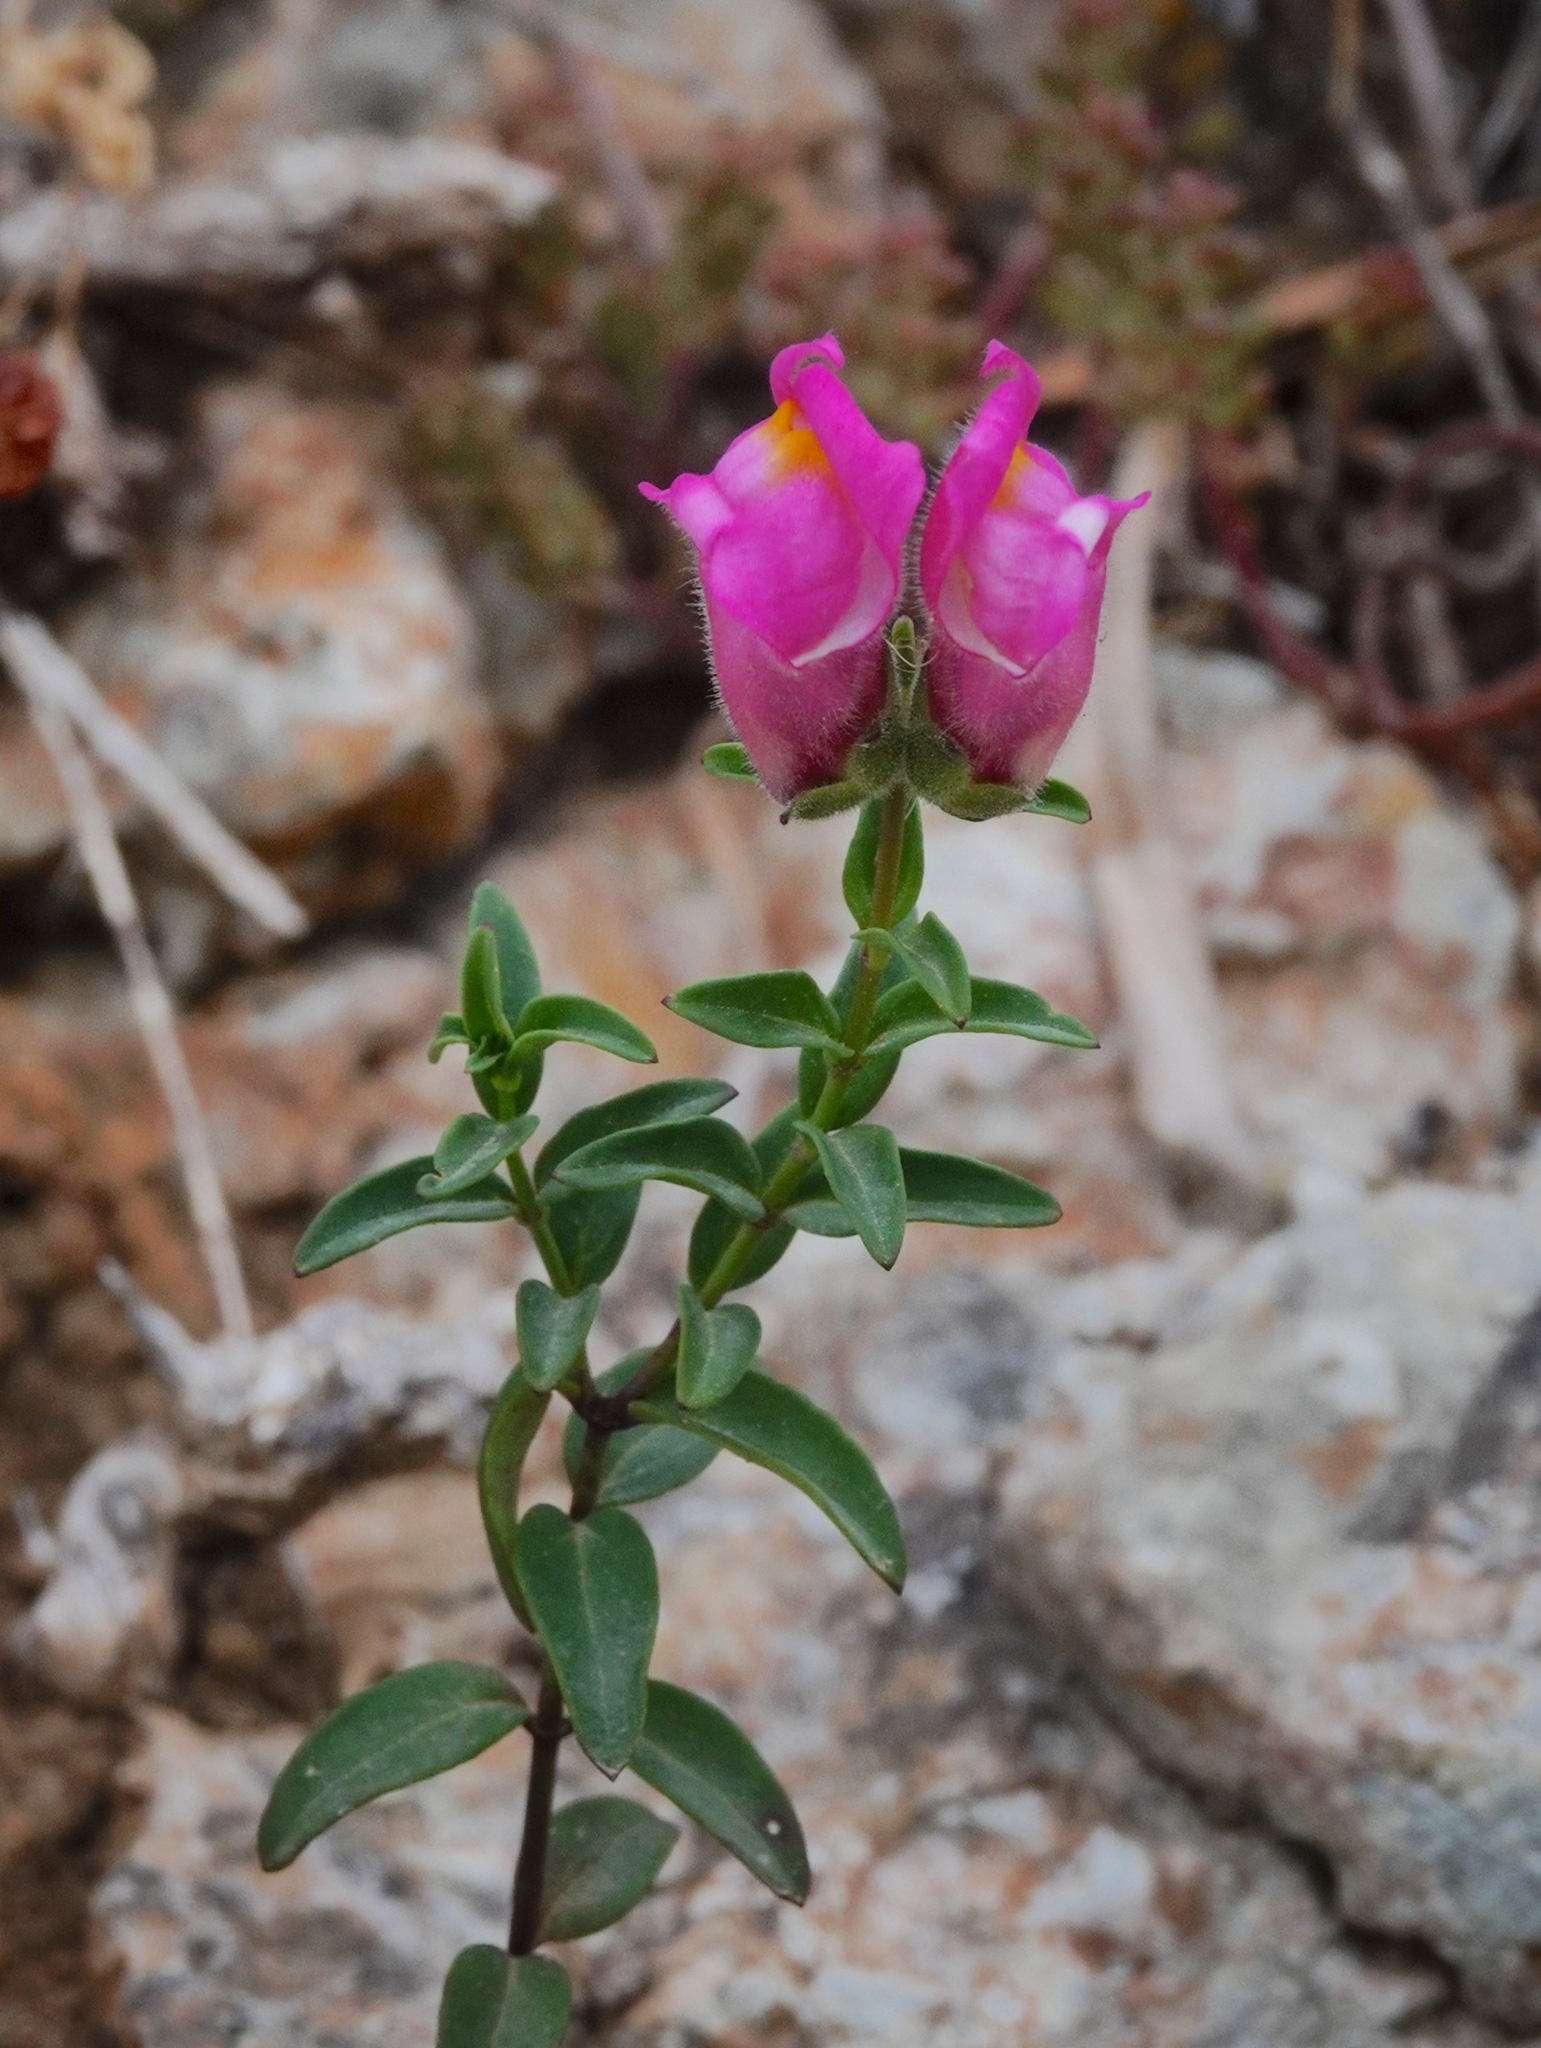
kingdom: Plantae
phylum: Tracheophyta
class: Magnoliopsida
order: Lamiales
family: Plantaginaceae
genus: Antirrhinum
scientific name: Antirrhinum linkianum
